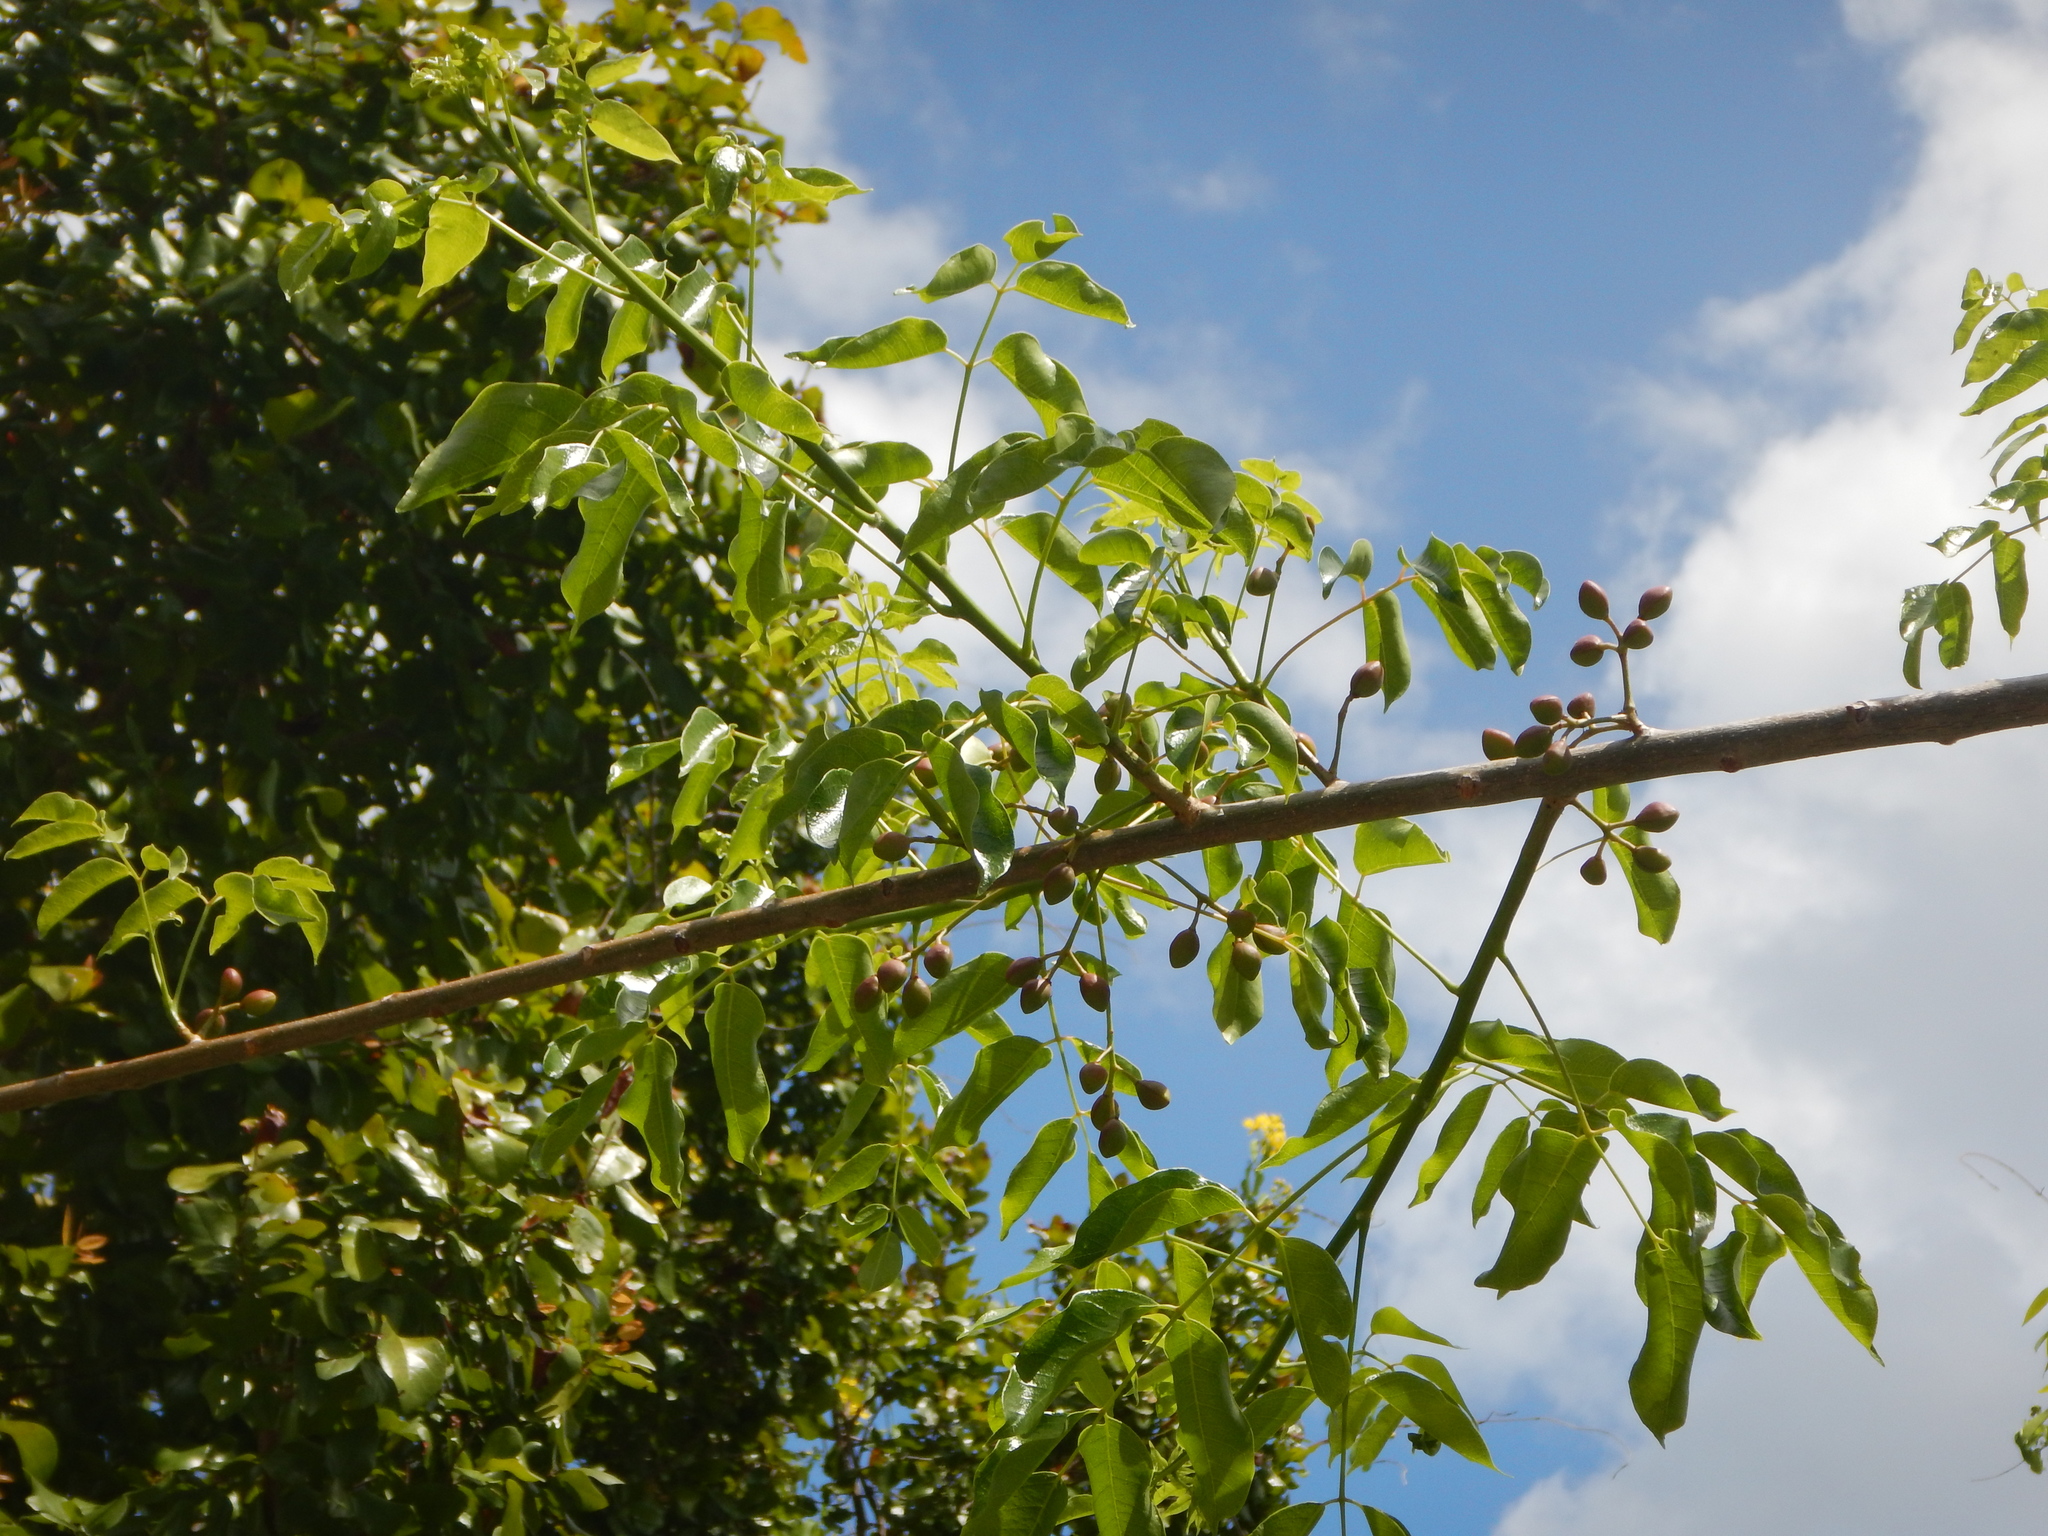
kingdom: Plantae
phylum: Tracheophyta
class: Magnoliopsida
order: Sapindales
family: Burseraceae
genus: Bursera
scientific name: Bursera simaruba
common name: Turpentine tree
